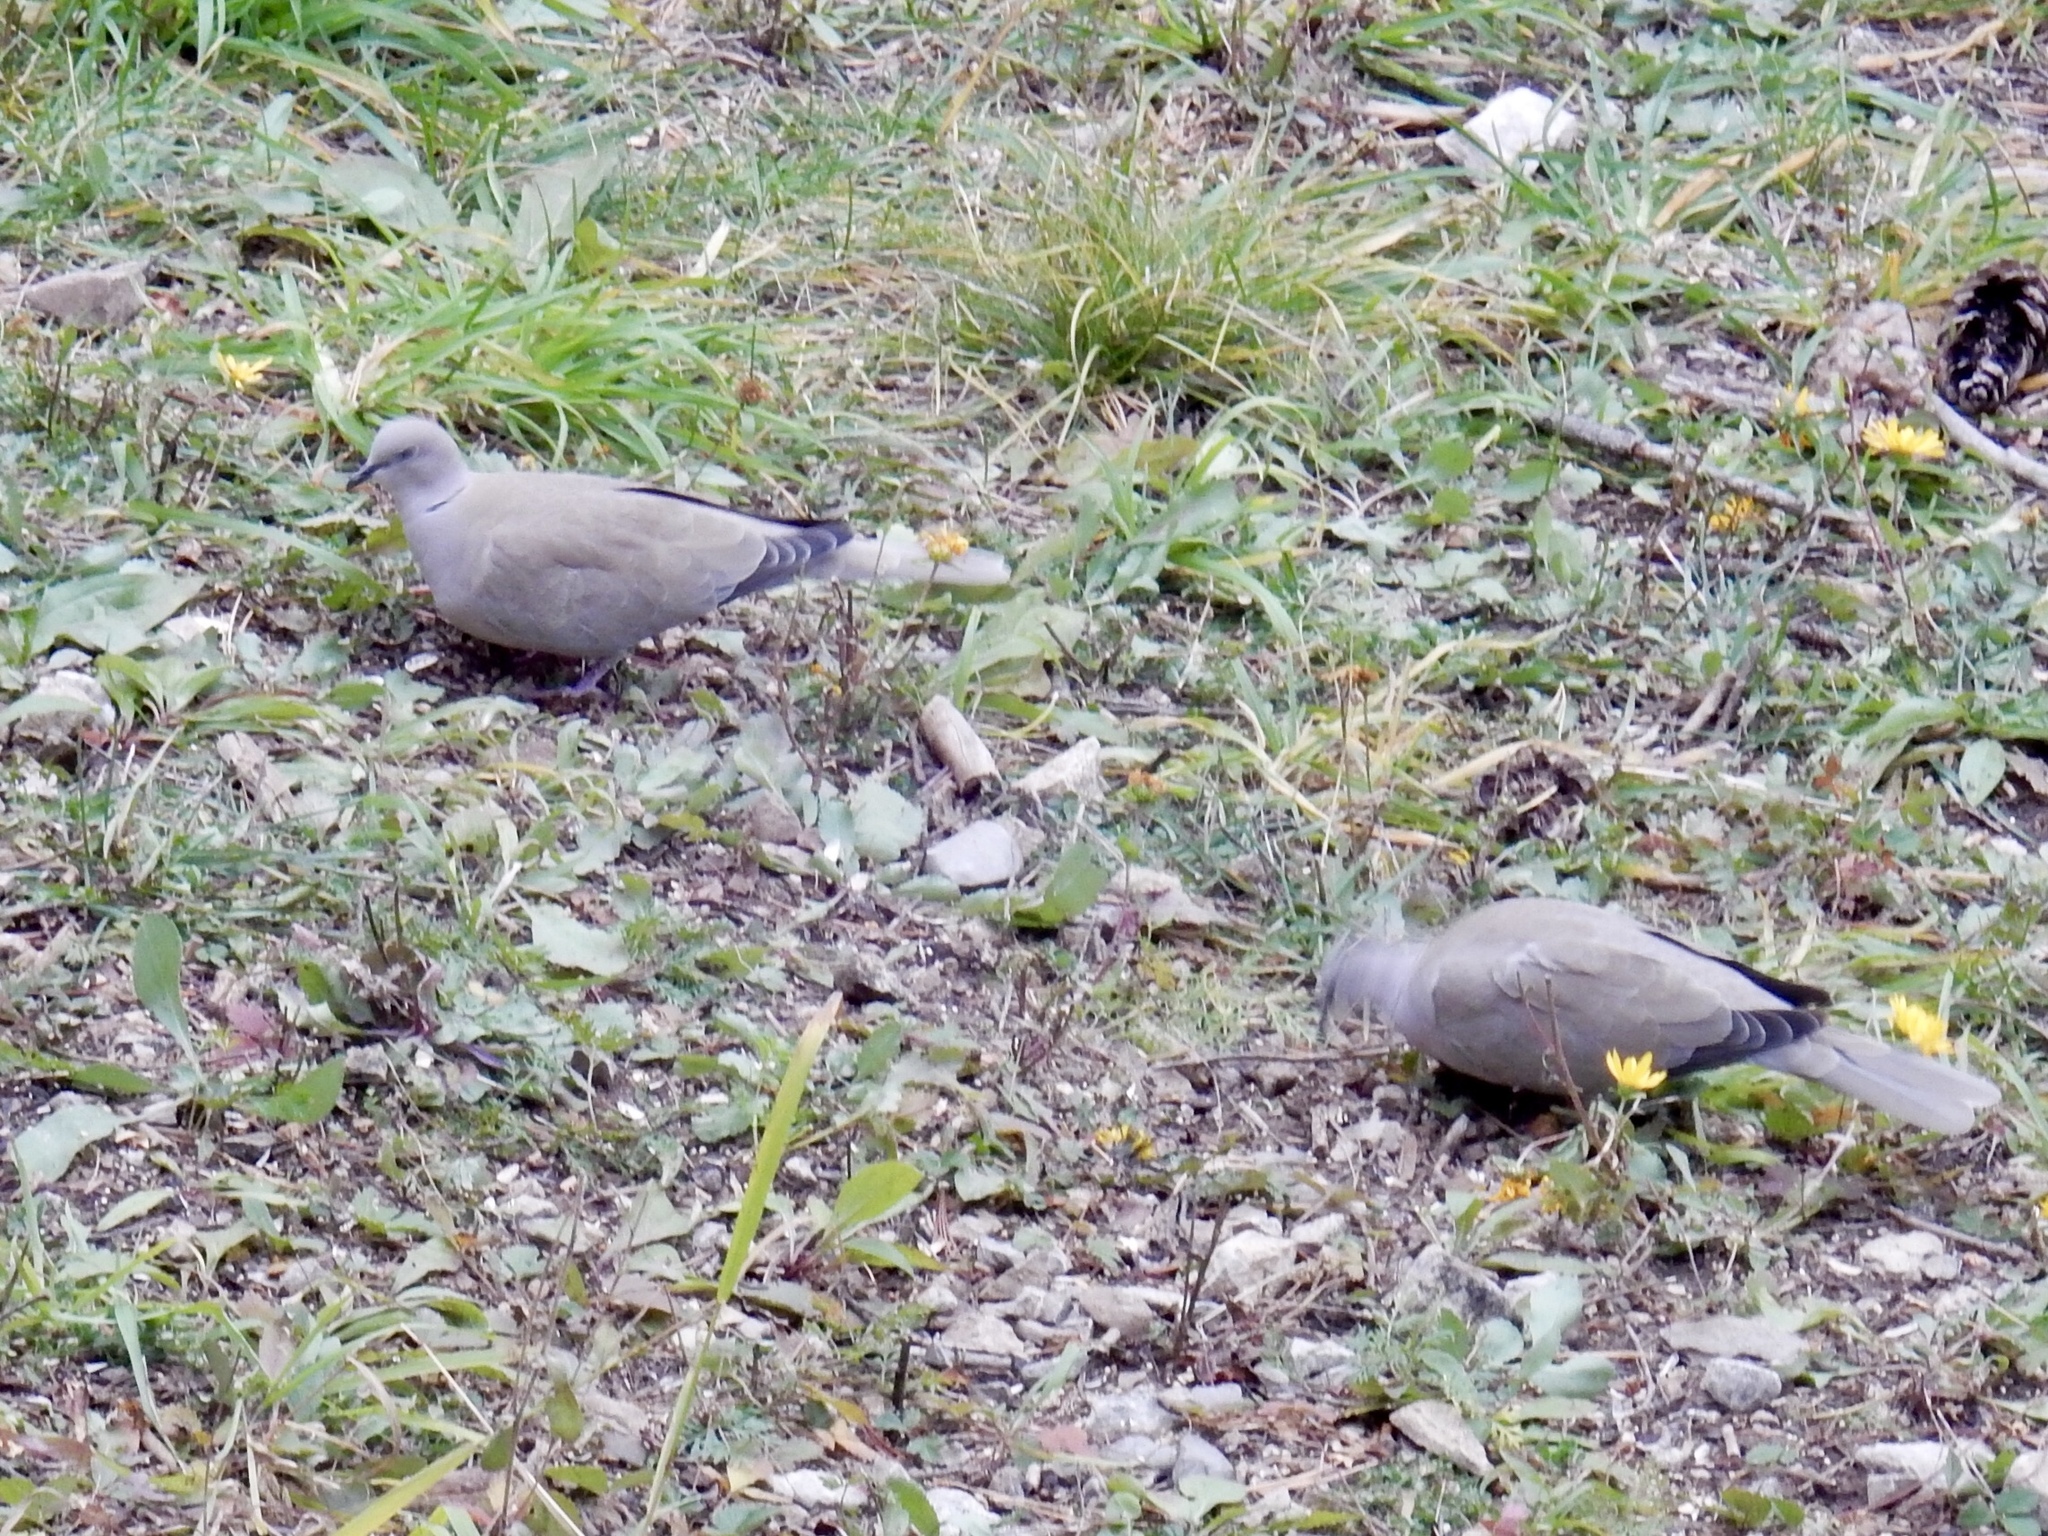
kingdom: Animalia
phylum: Chordata
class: Aves
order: Columbiformes
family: Columbidae
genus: Streptopelia
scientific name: Streptopelia decaocto
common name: Eurasian collared dove
